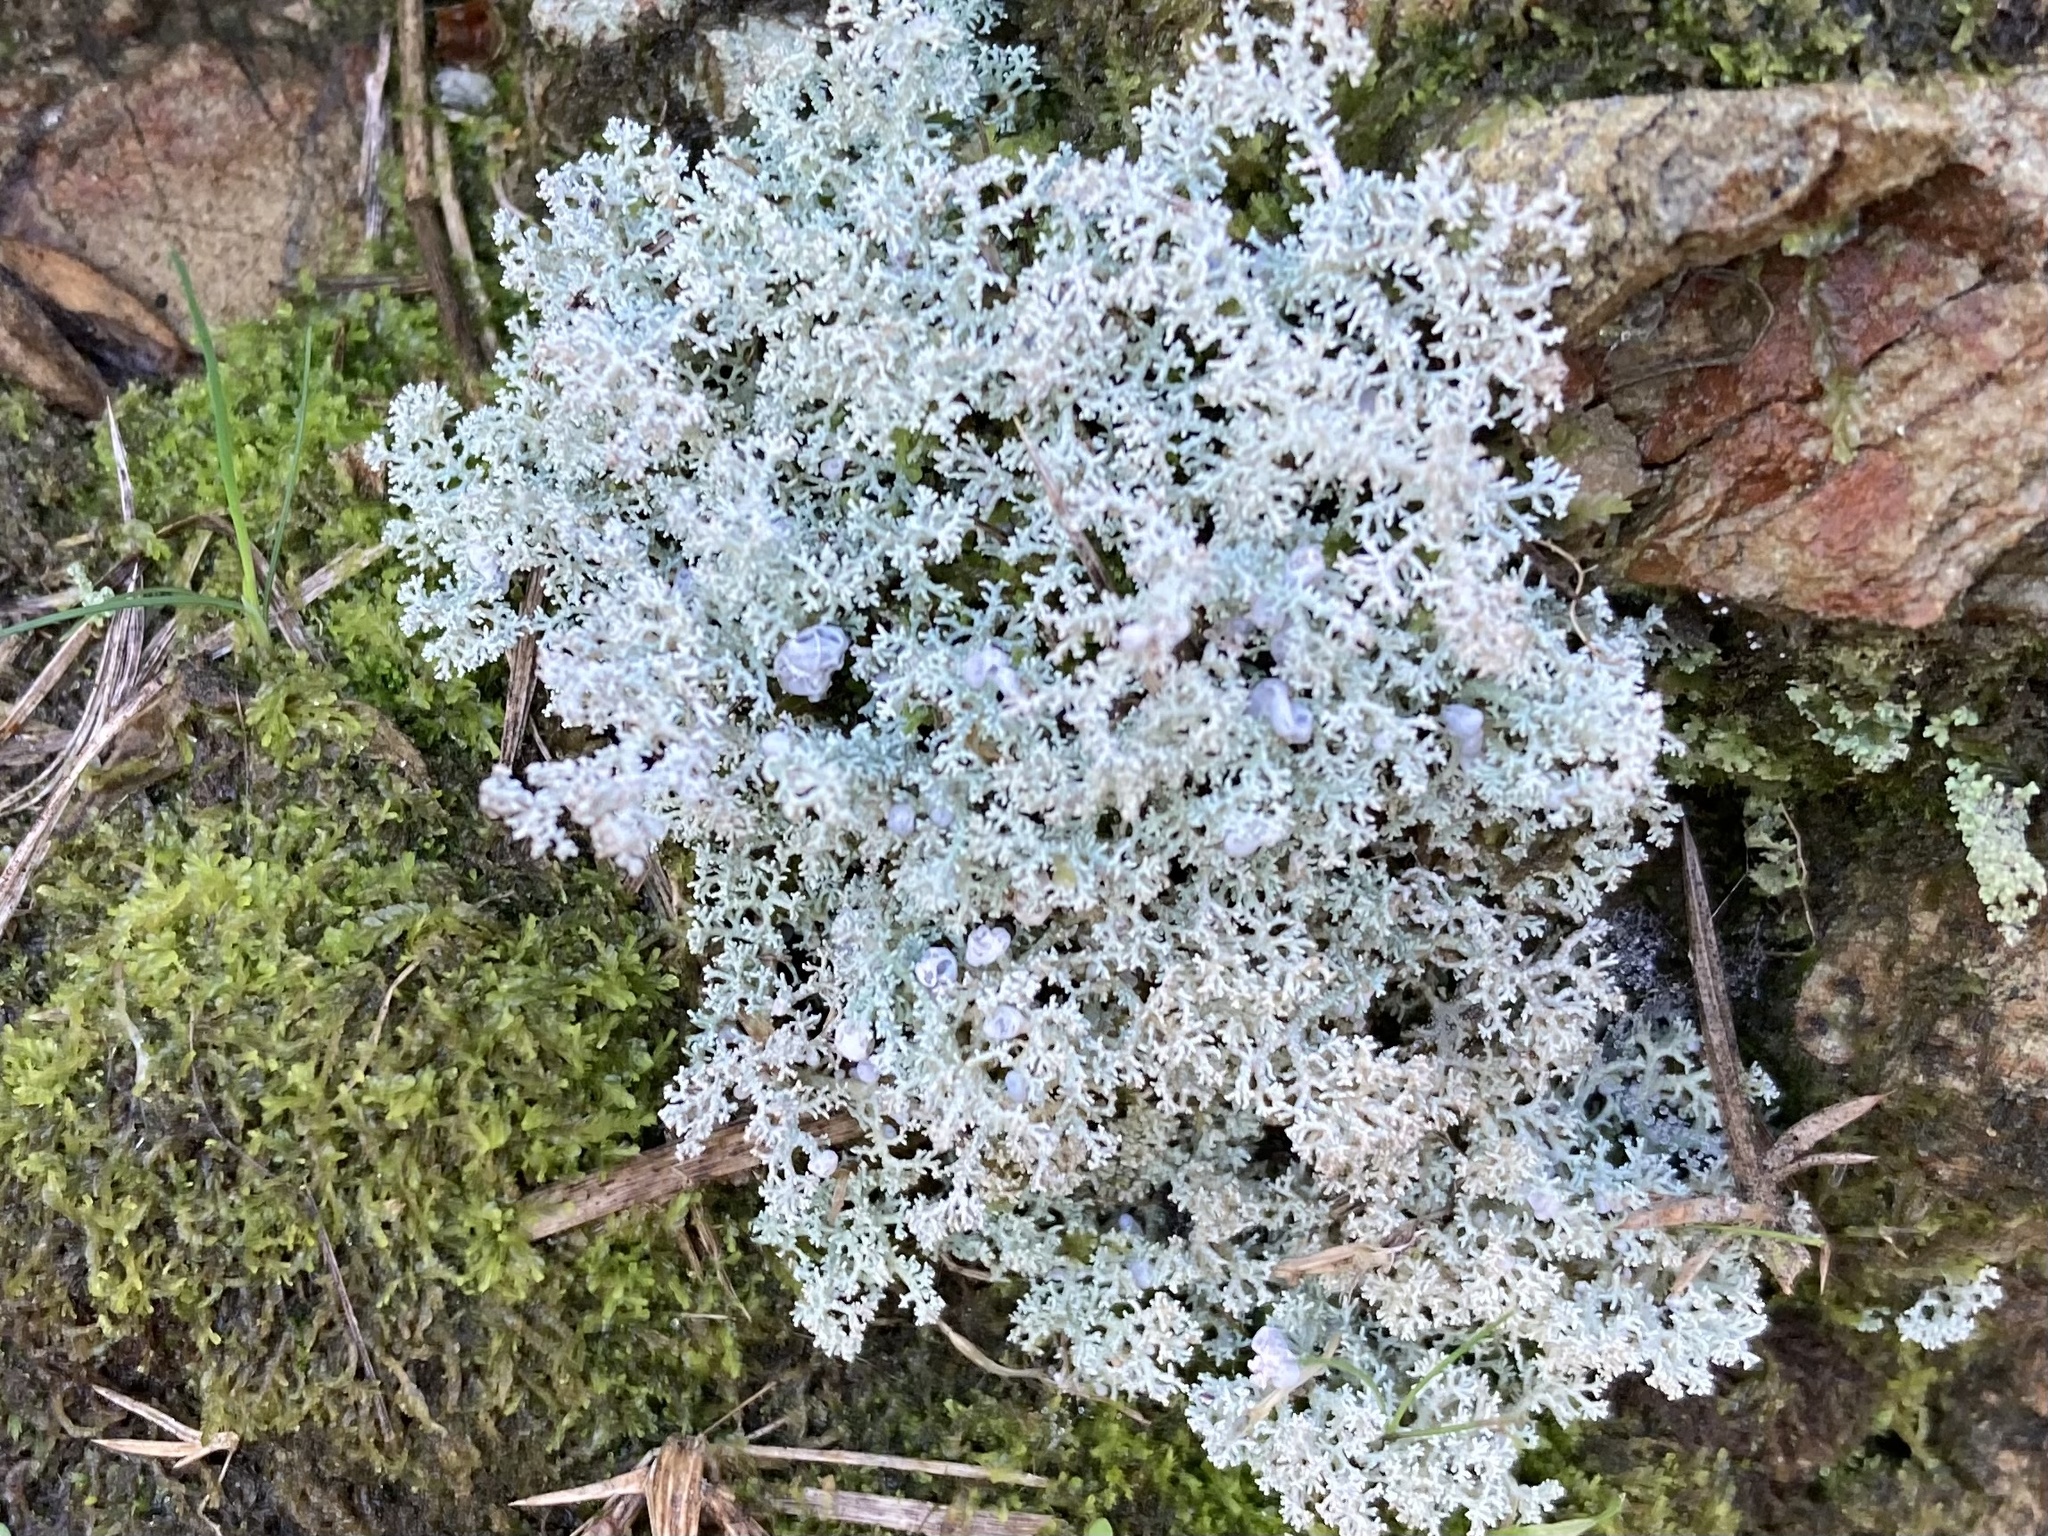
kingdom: Fungi
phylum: Ascomycota
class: Lecanoromycetes
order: Lecanorales
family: Stereocaulaceae
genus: Stereocaulon
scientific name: Stereocaulon ramulosum
